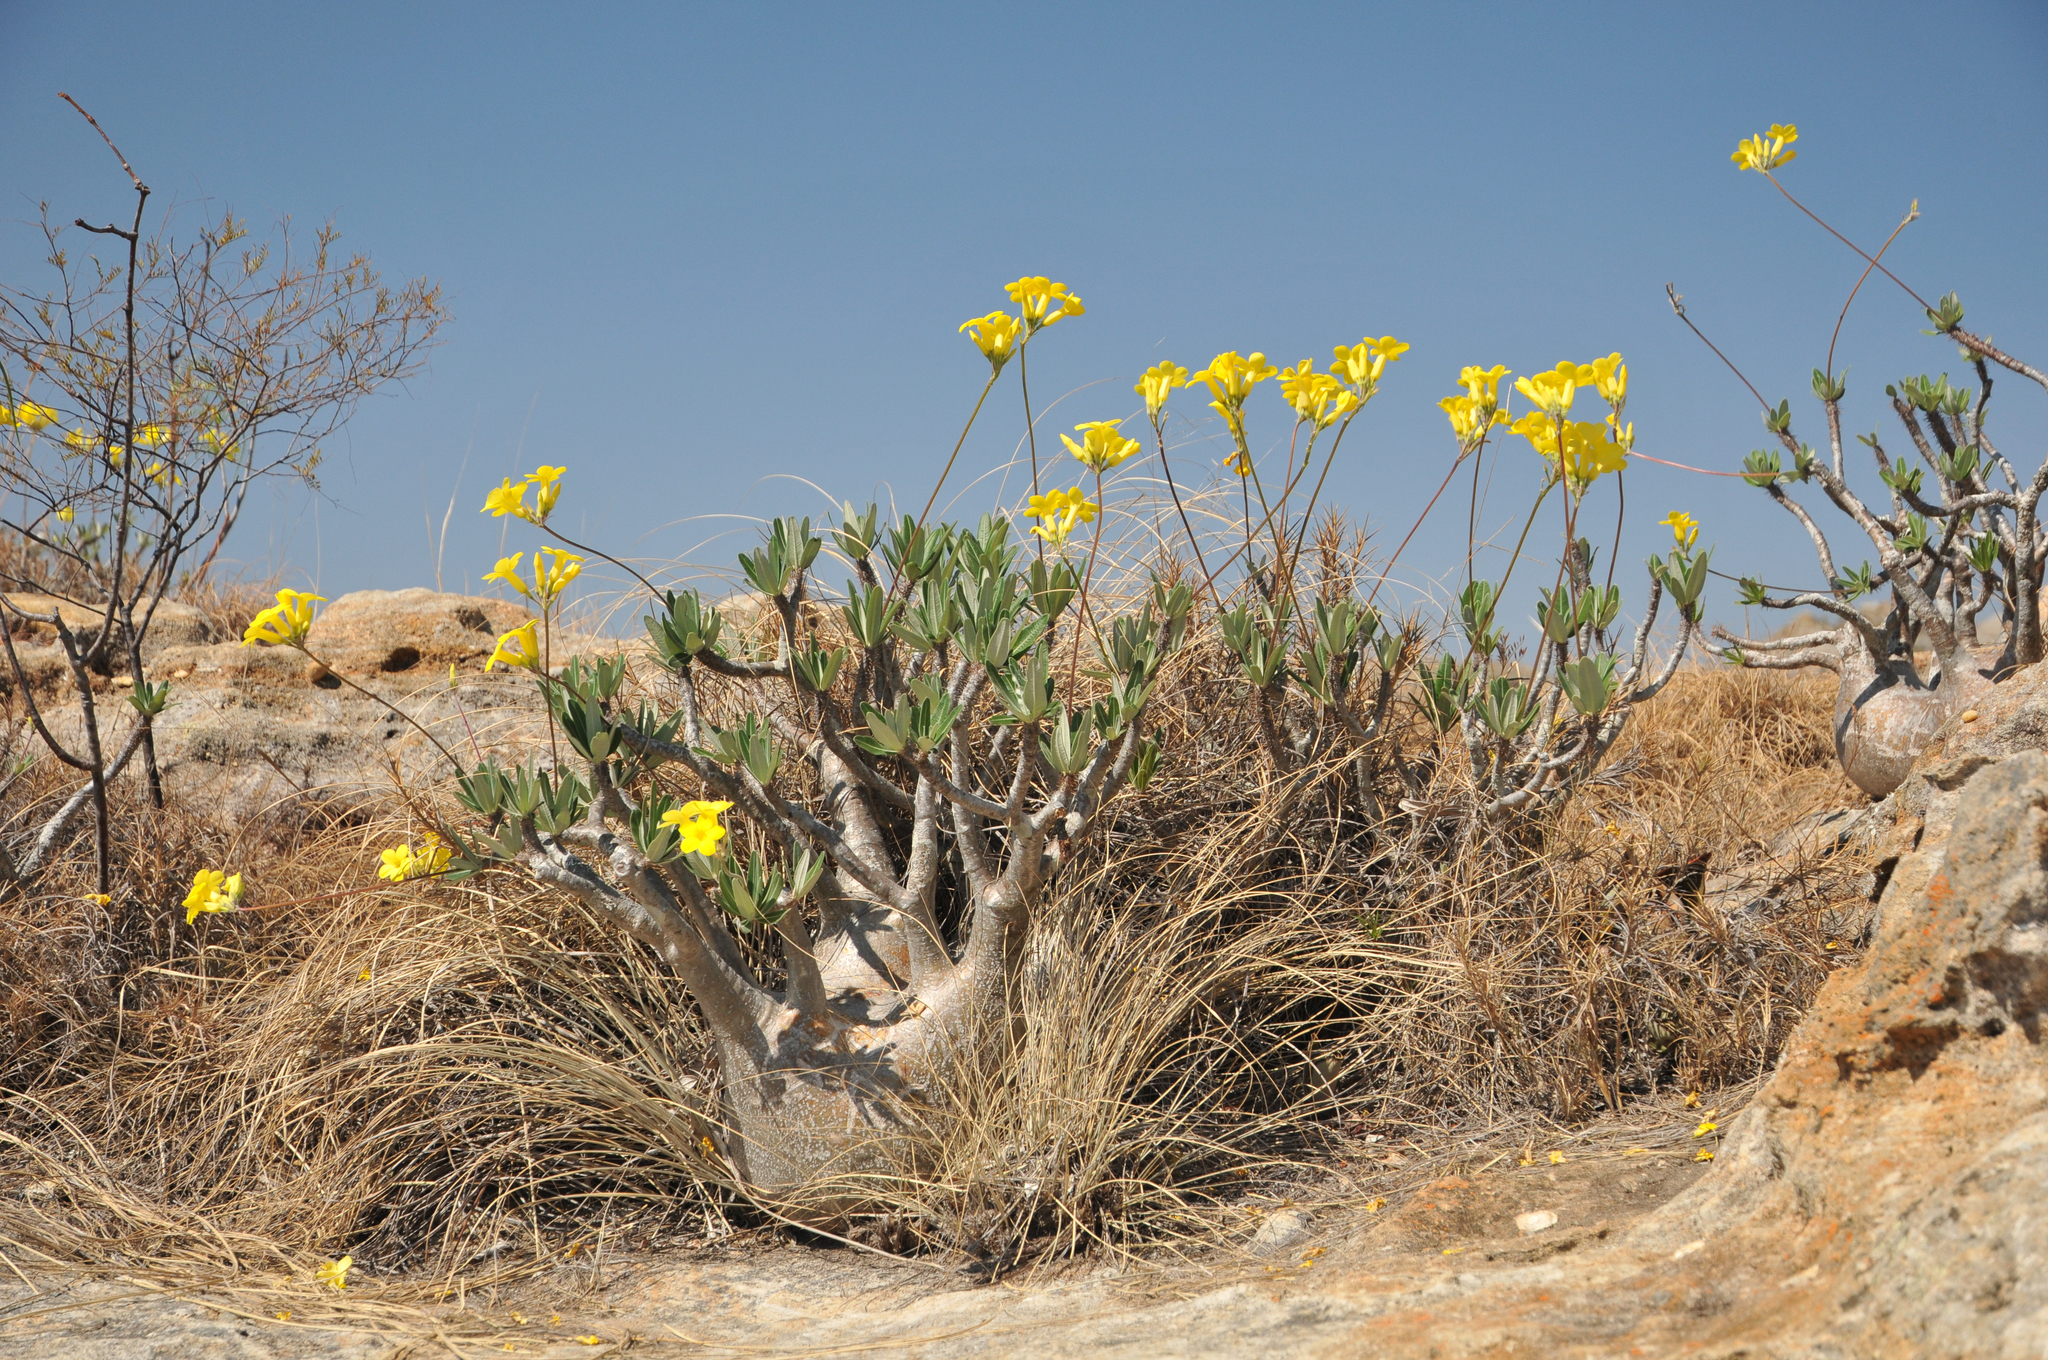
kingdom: Plantae
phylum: Tracheophyta
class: Magnoliopsida
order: Gentianales
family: Apocynaceae
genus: Pachypodium
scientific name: Pachypodium gracilius
